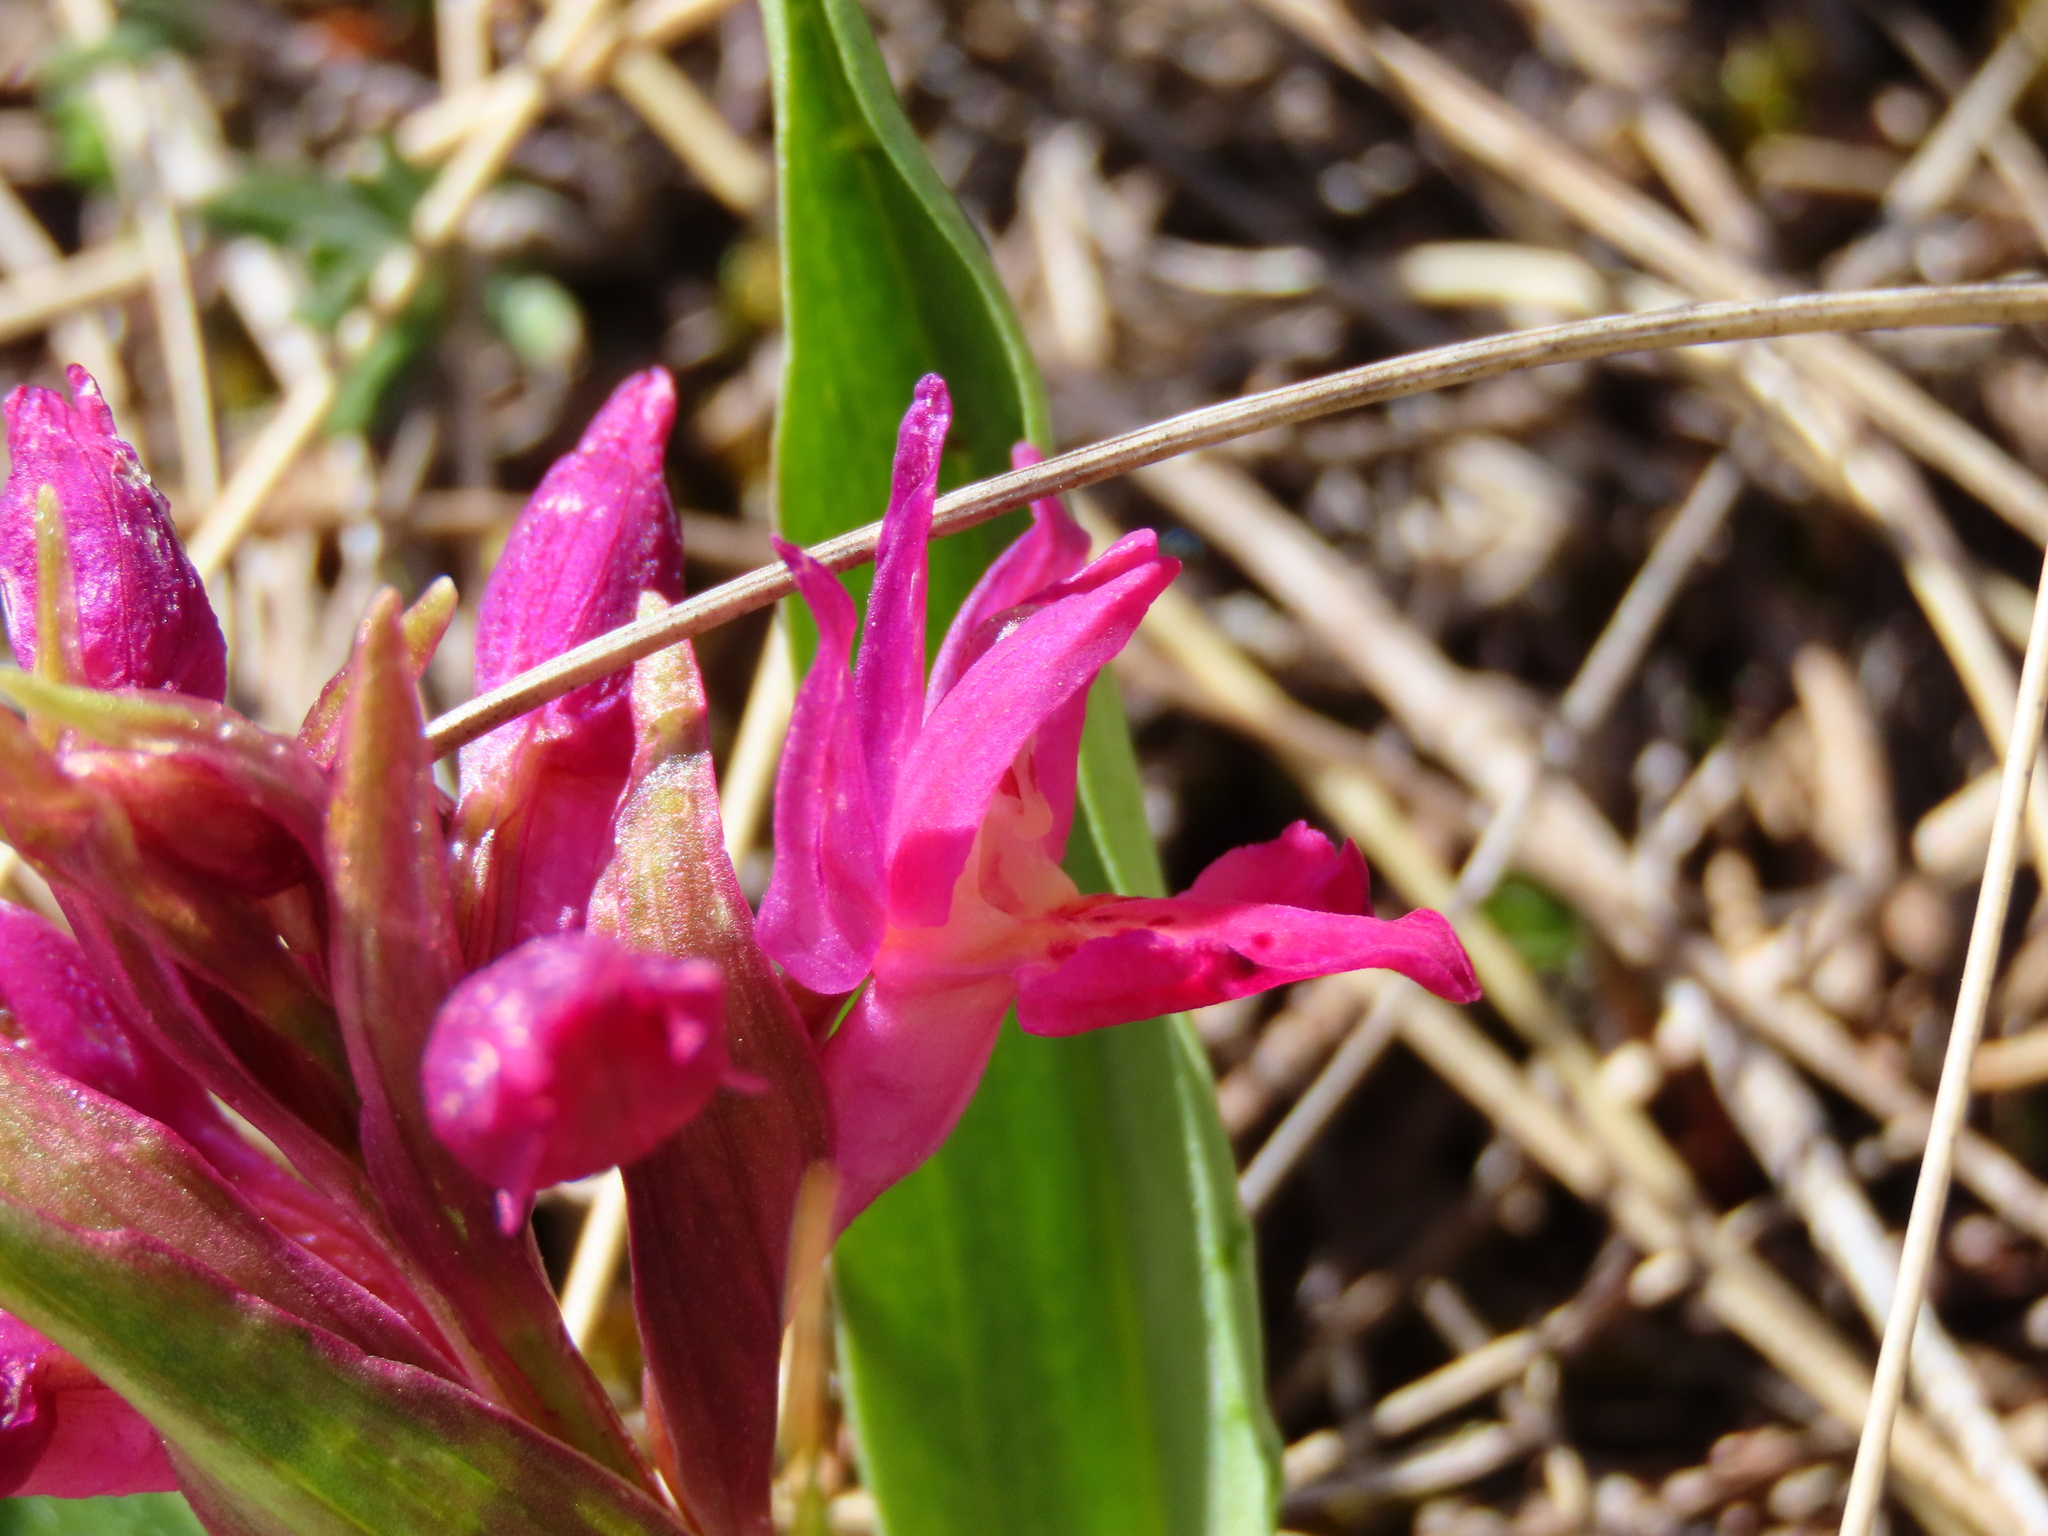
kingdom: Plantae
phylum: Tracheophyta
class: Liliopsida
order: Asparagales
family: Orchidaceae
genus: Dactylorhiza
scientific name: Dactylorhiza sambucina
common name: Elder-flowered orchid
